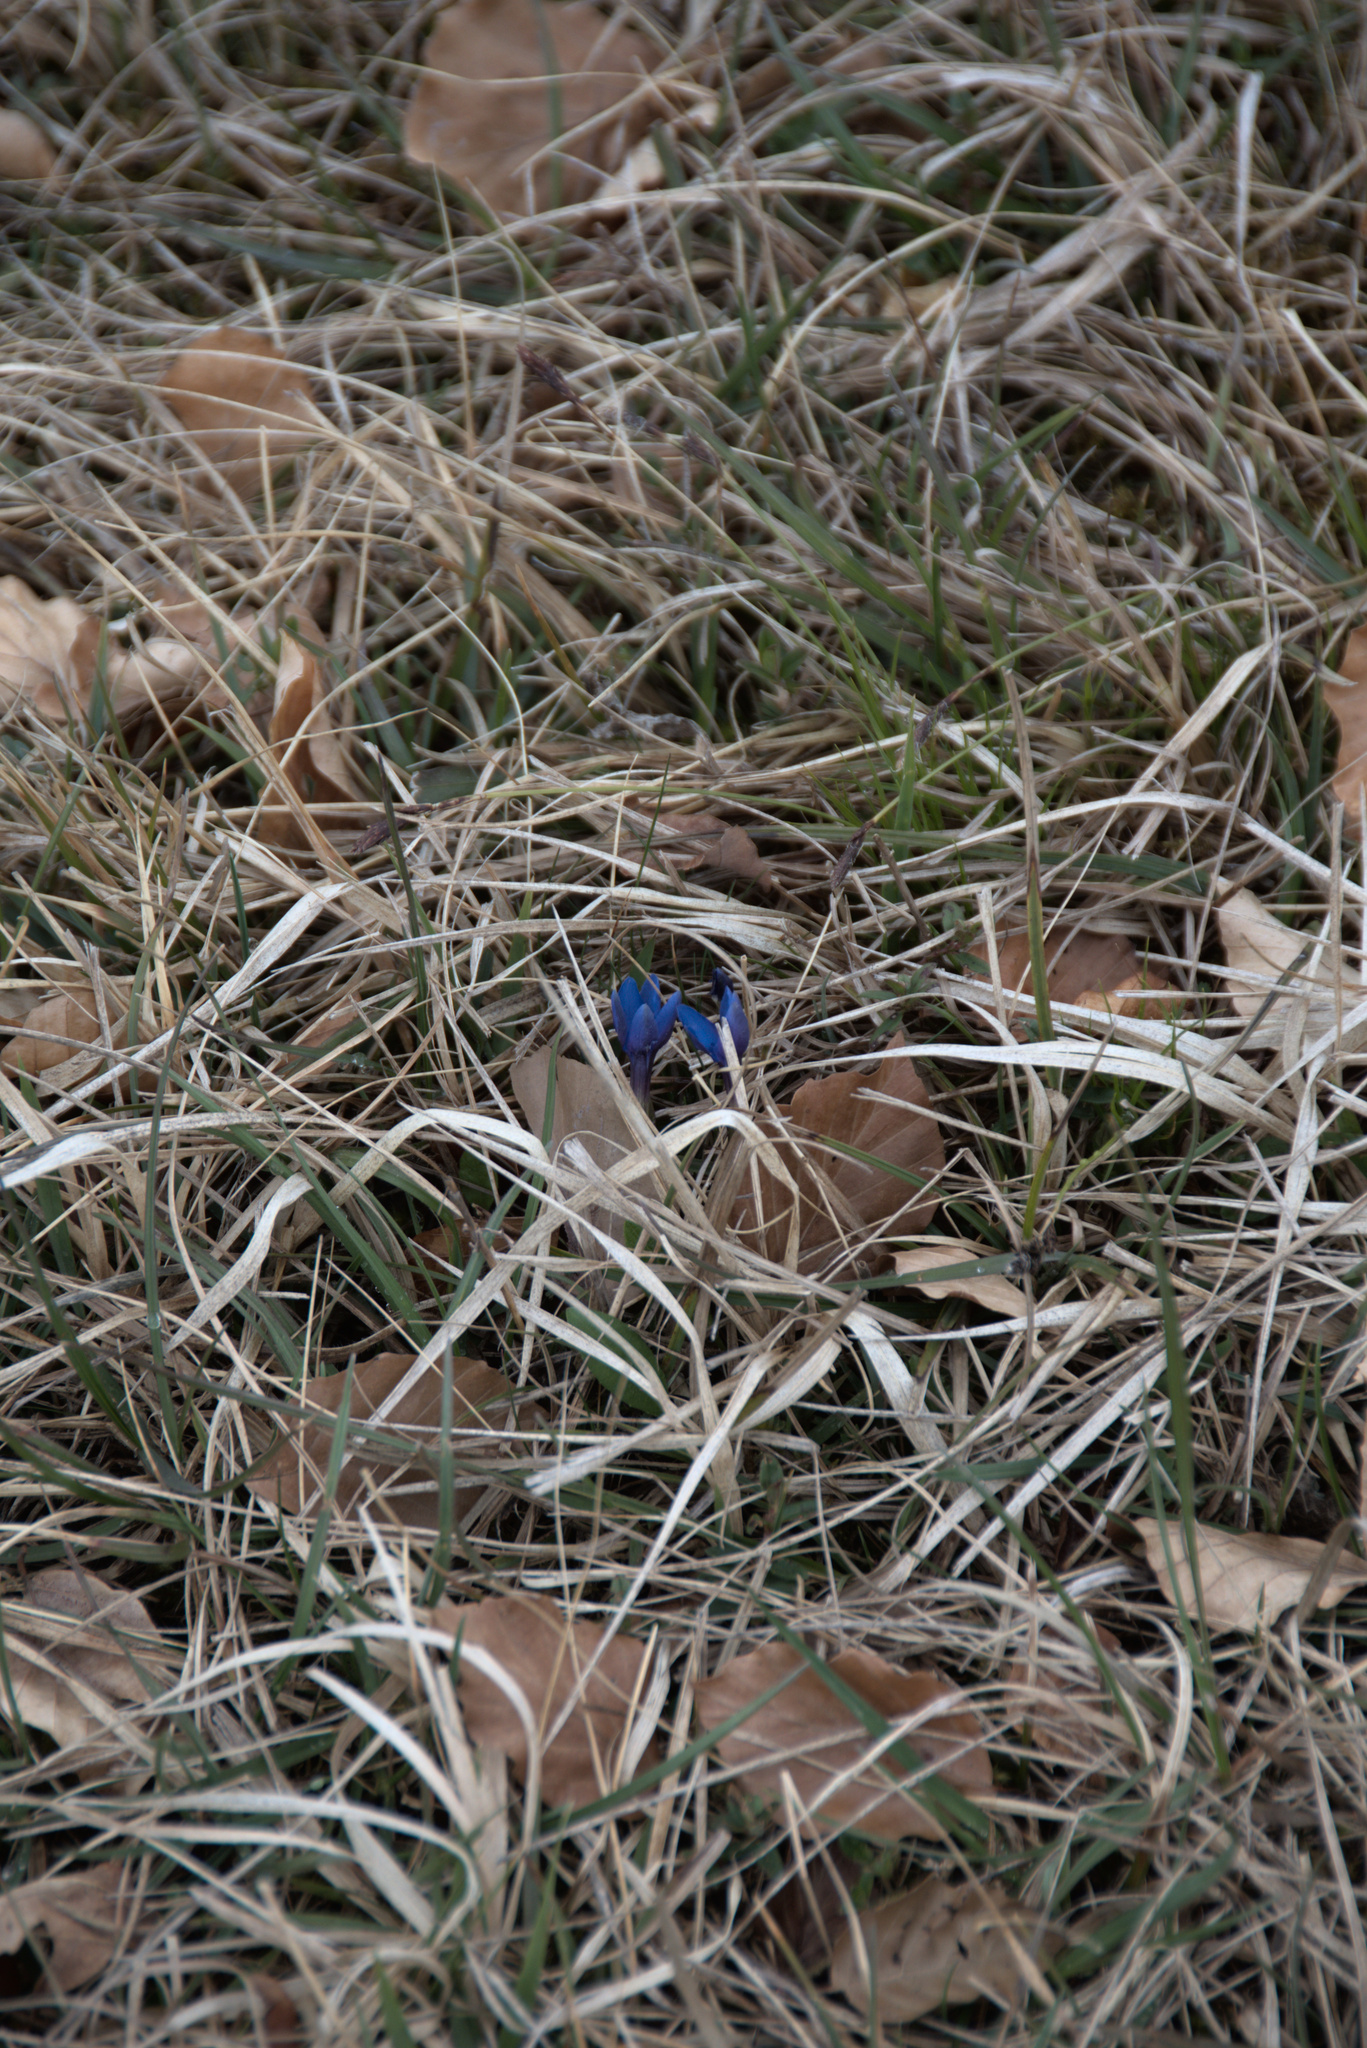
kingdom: Plantae
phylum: Tracheophyta
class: Magnoliopsida
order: Gentianales
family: Gentianaceae
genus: Gentiana
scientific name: Gentiana verna
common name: Spring gentian
